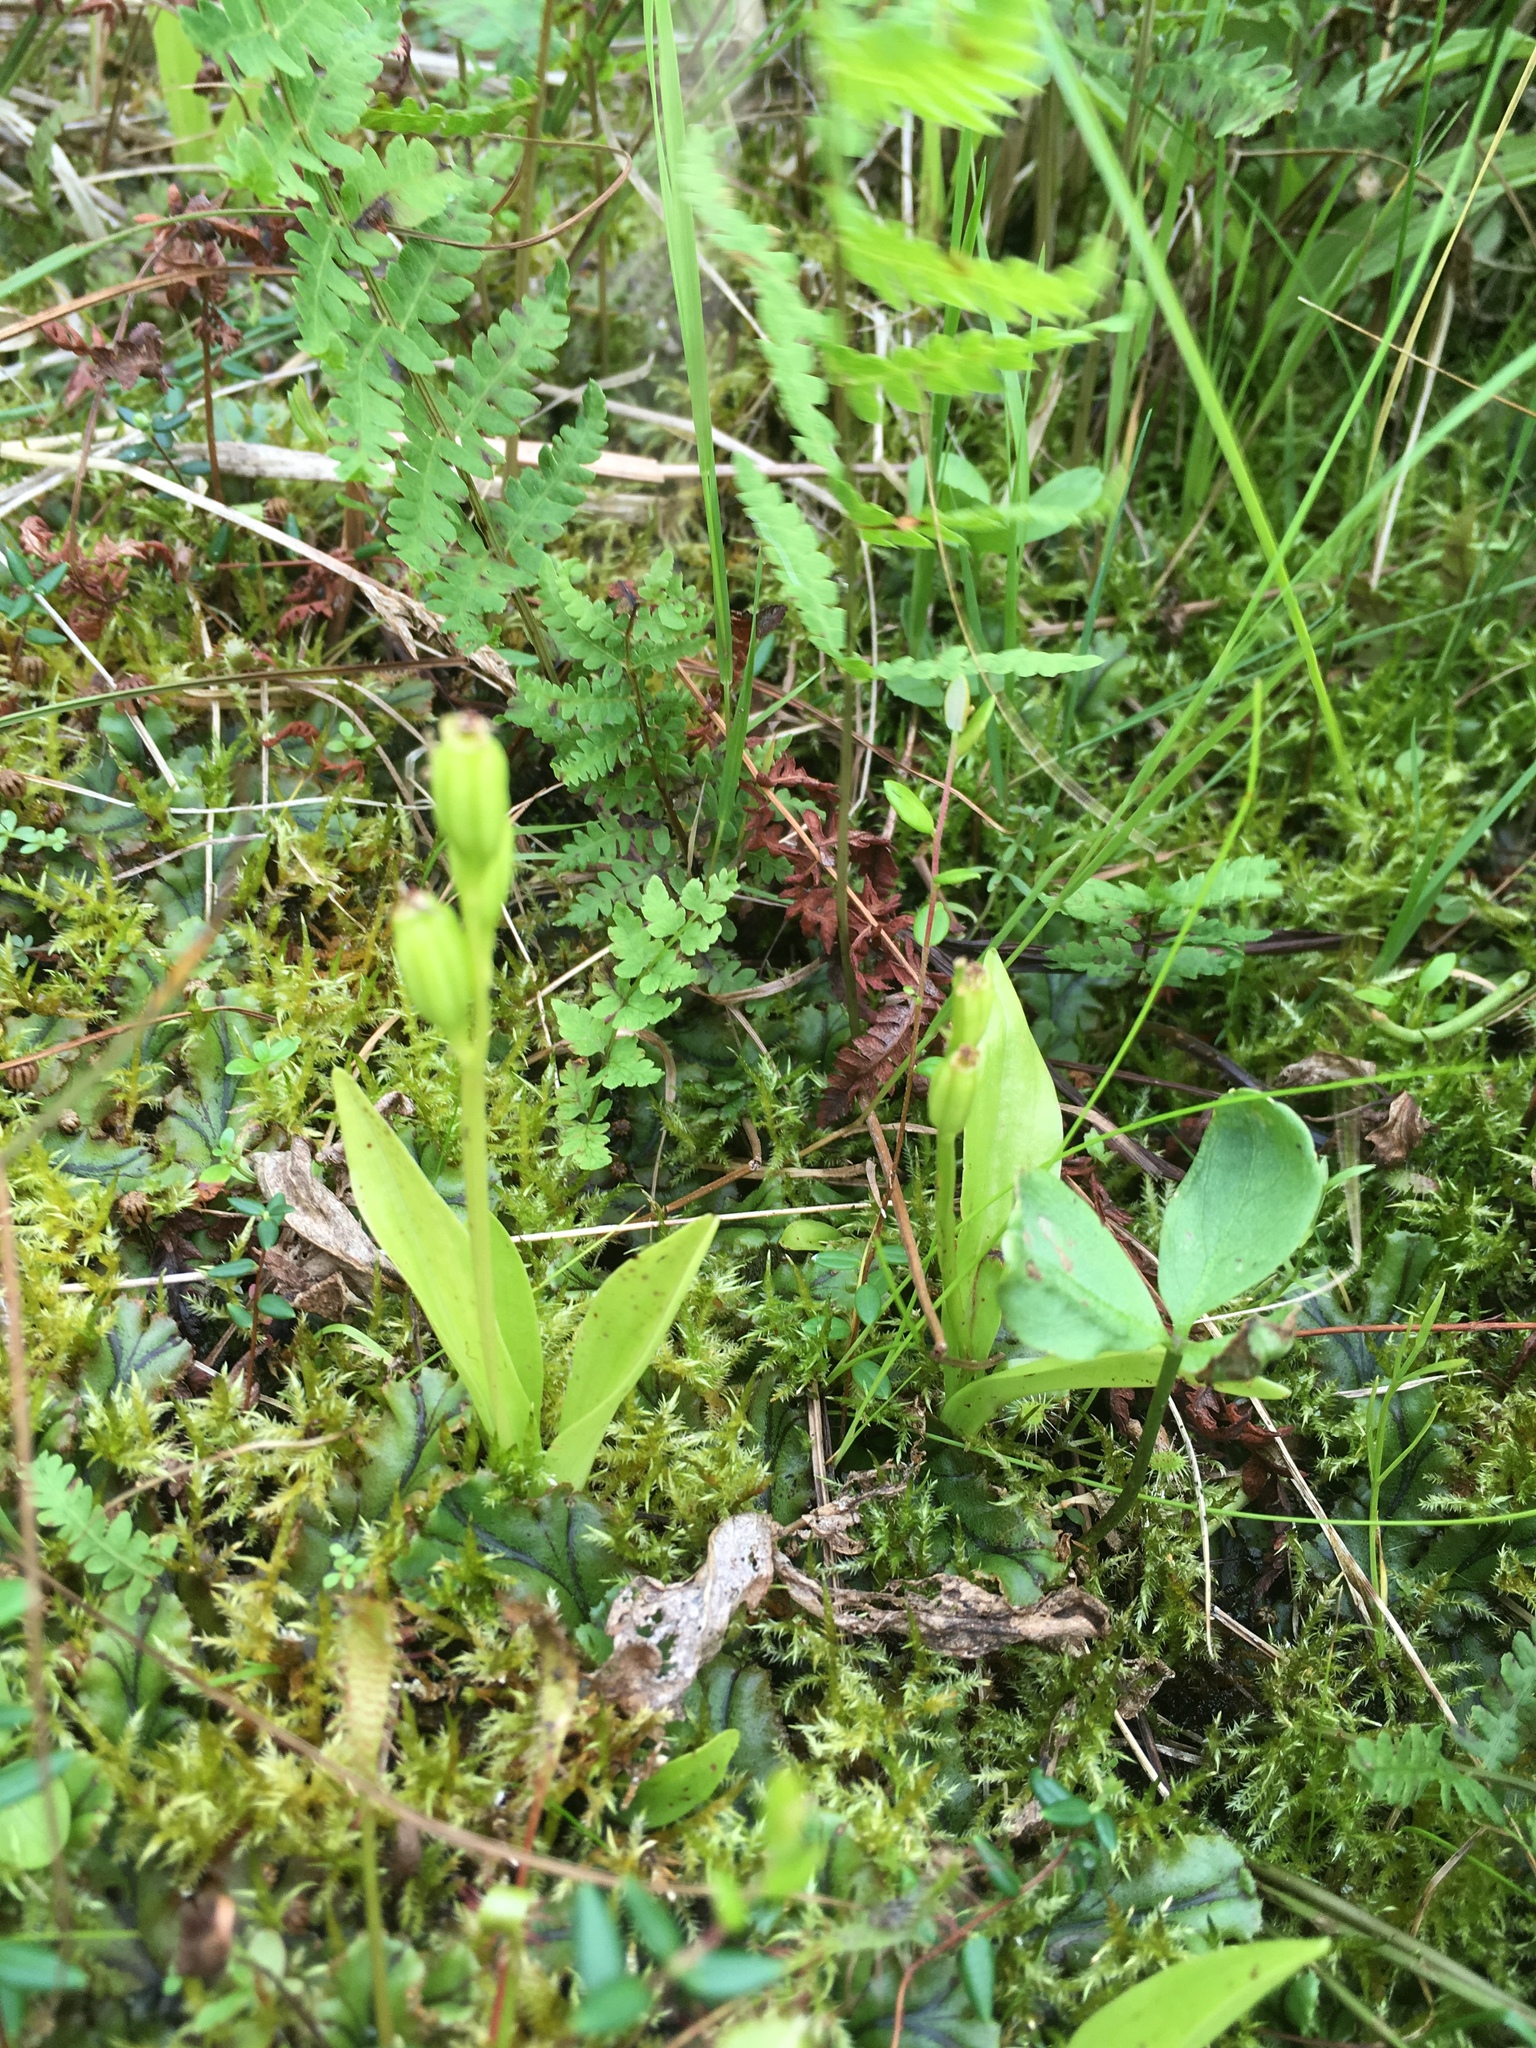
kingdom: Animalia
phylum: Arthropoda
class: Insecta
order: Coleoptera
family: Curculionidae
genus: Liparis
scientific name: Liparis loeselii
